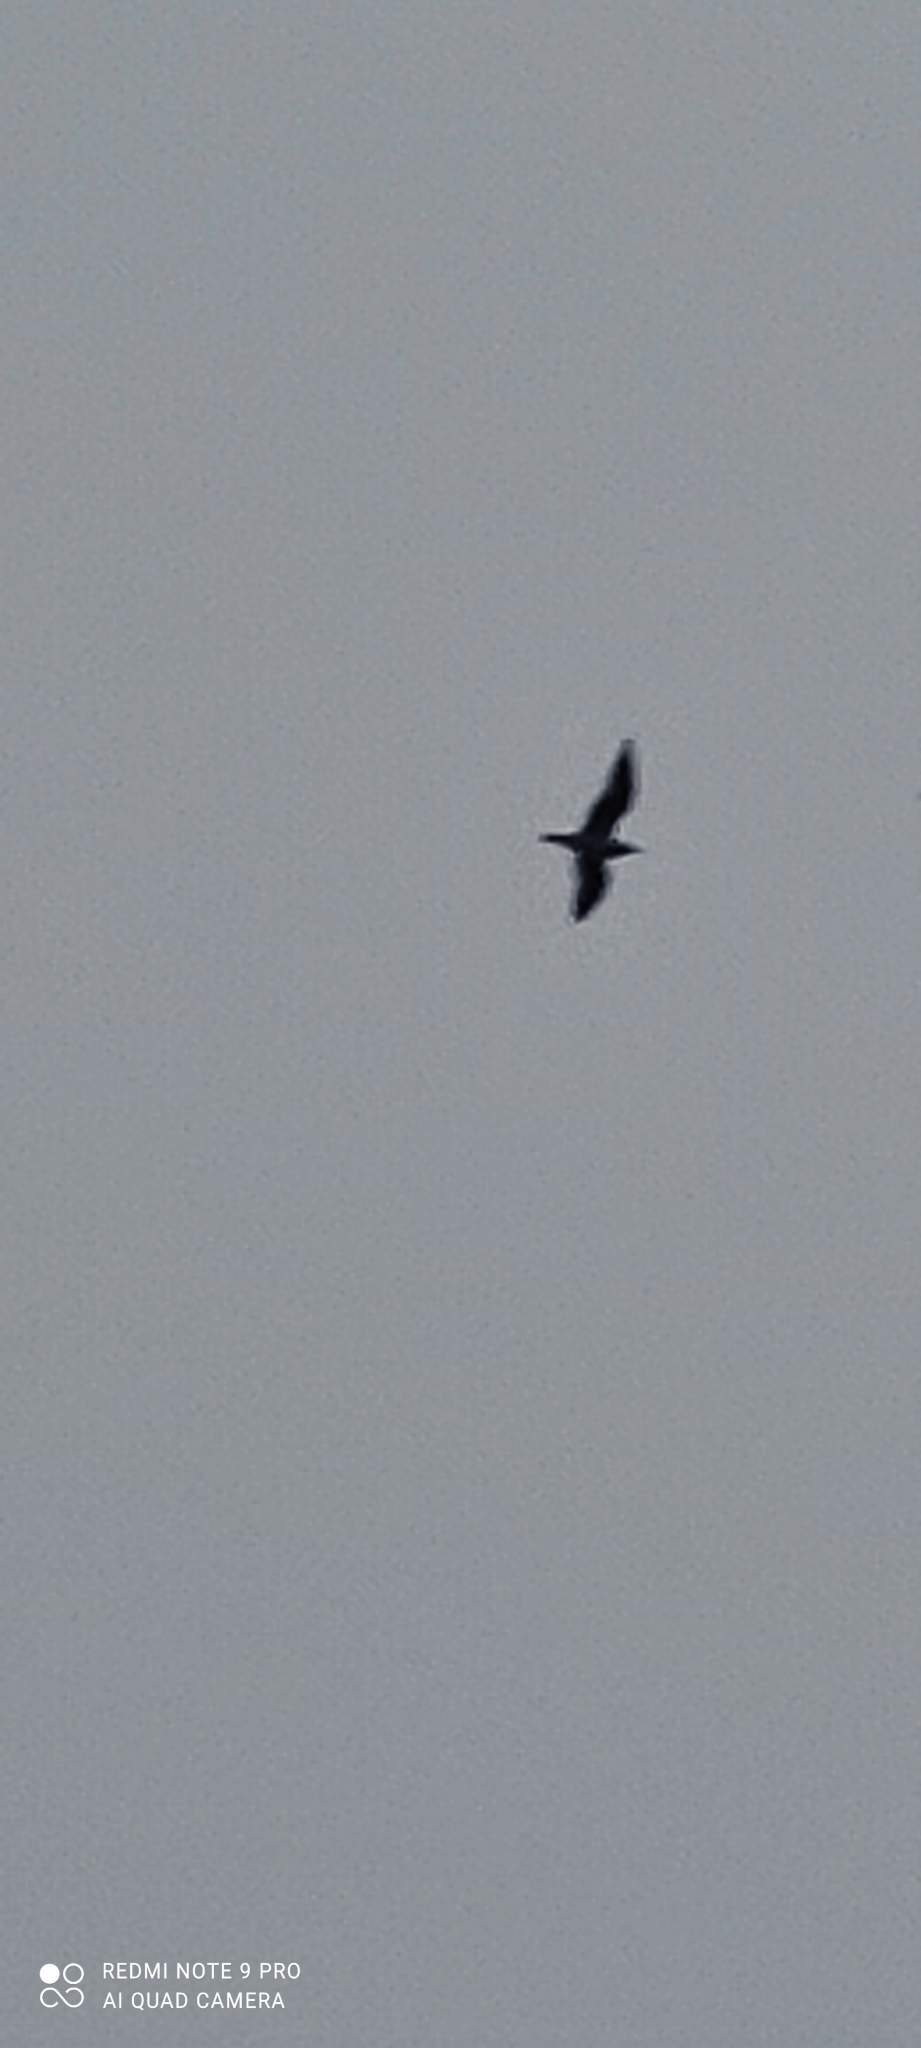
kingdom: Animalia
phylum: Chordata
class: Aves
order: Charadriiformes
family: Laridae
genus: Chroicocephalus
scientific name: Chroicocephalus ridibundus
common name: Black-headed gull
